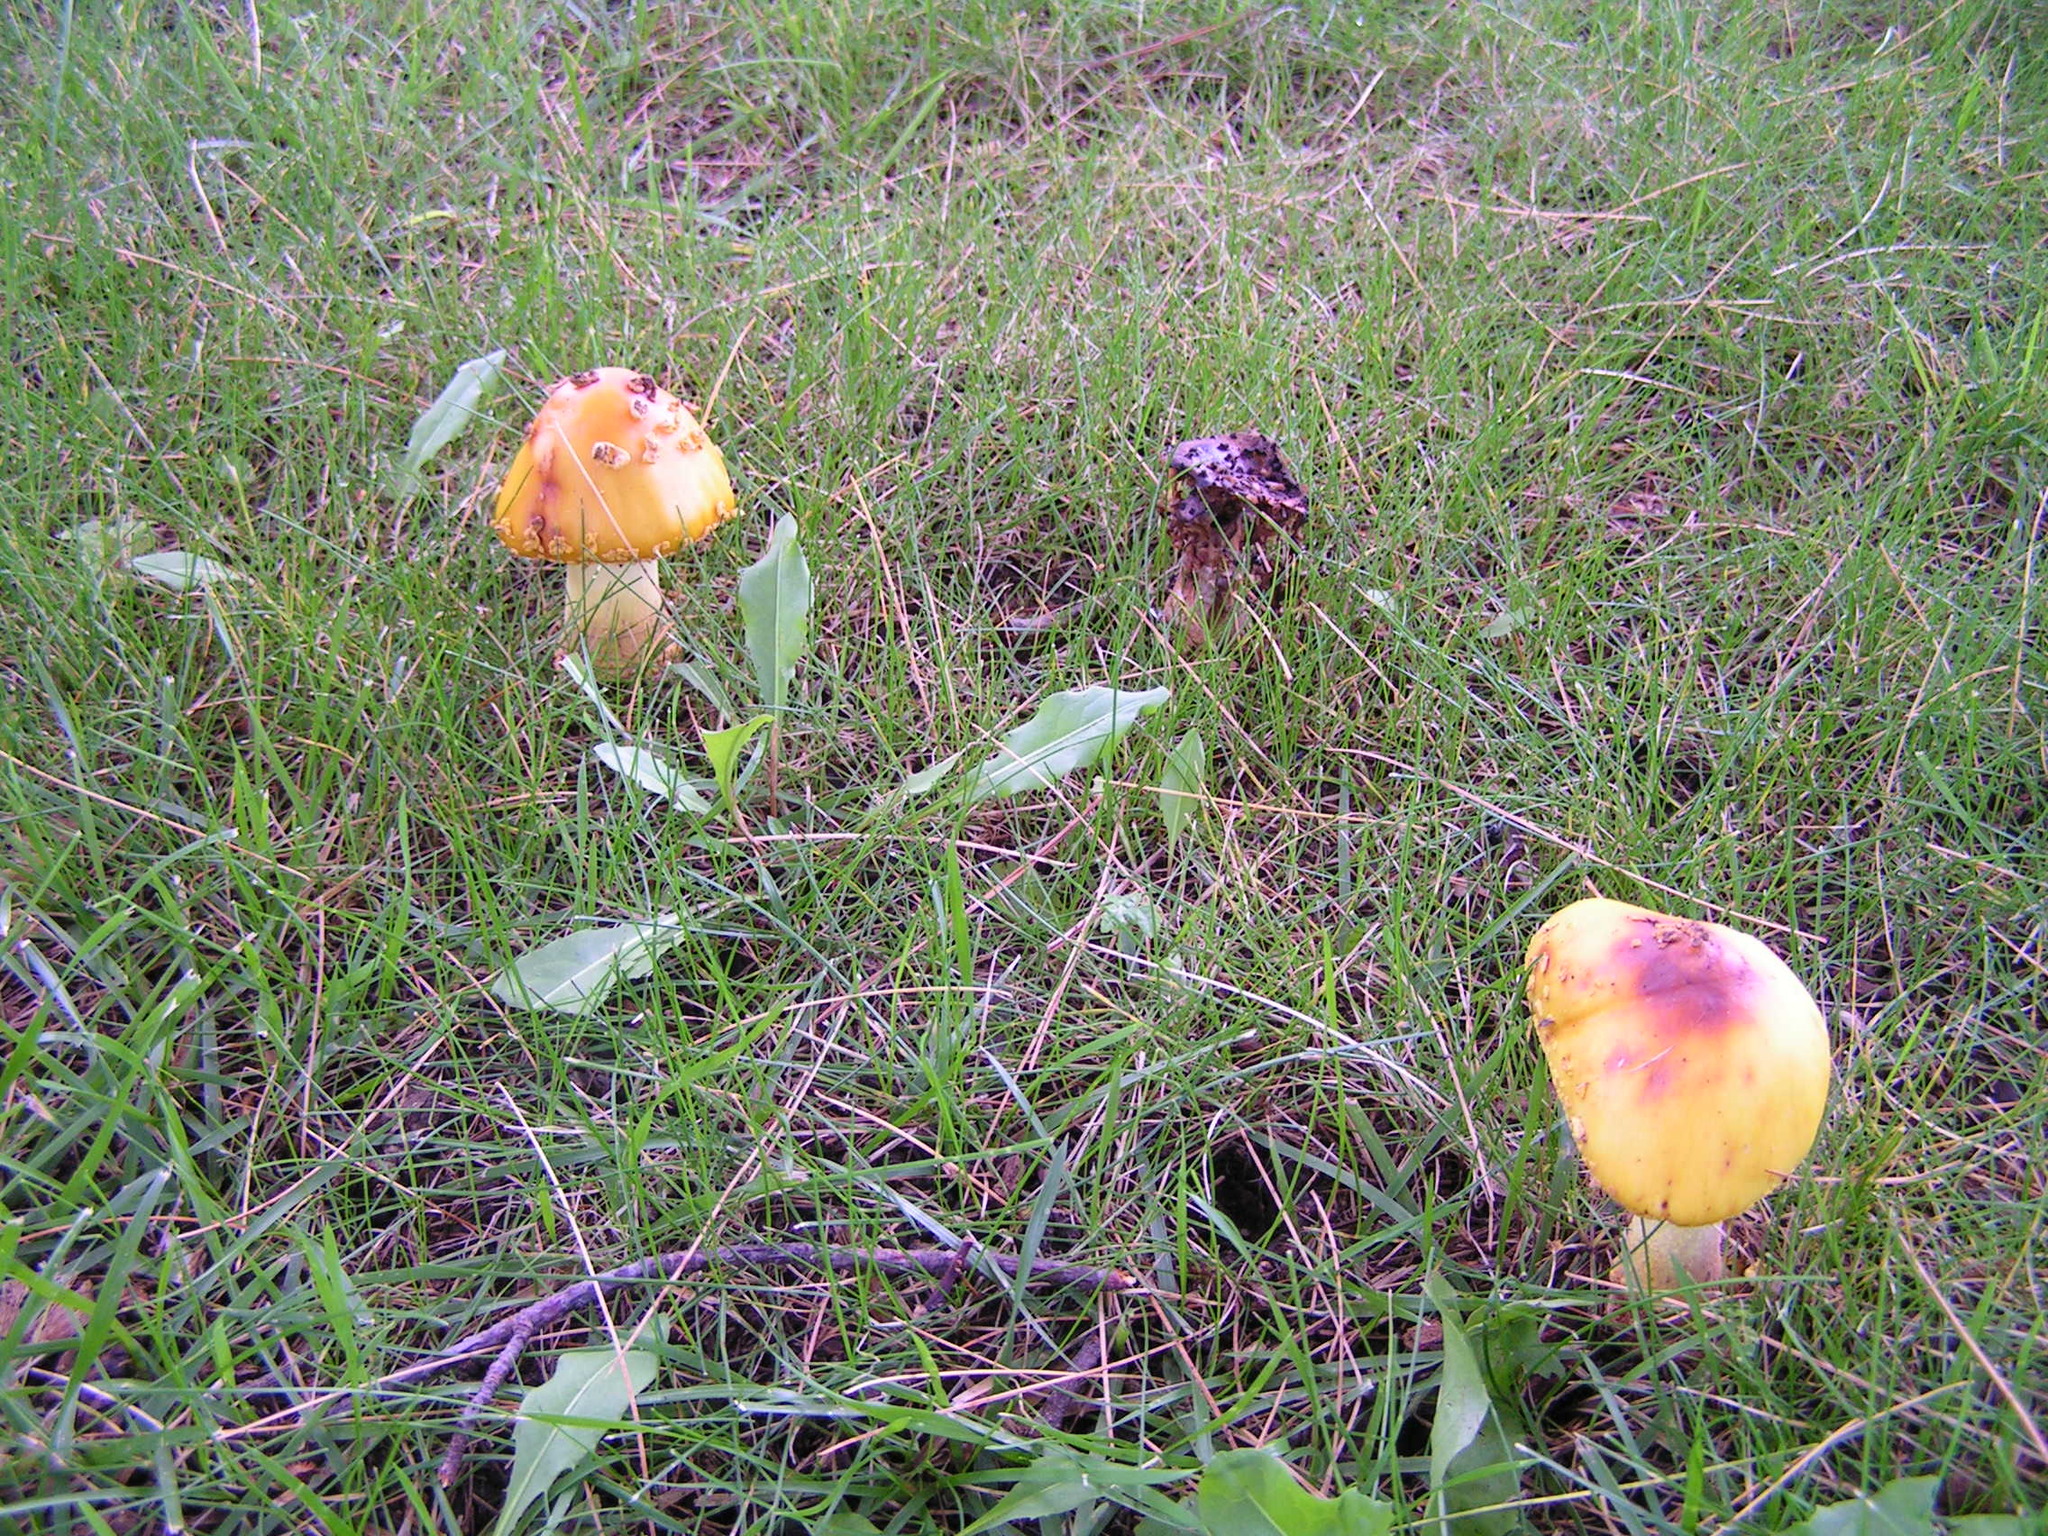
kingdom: Fungi
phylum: Basidiomycota
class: Agaricomycetes
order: Agaricales
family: Amanitaceae
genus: Amanita
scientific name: Amanita
